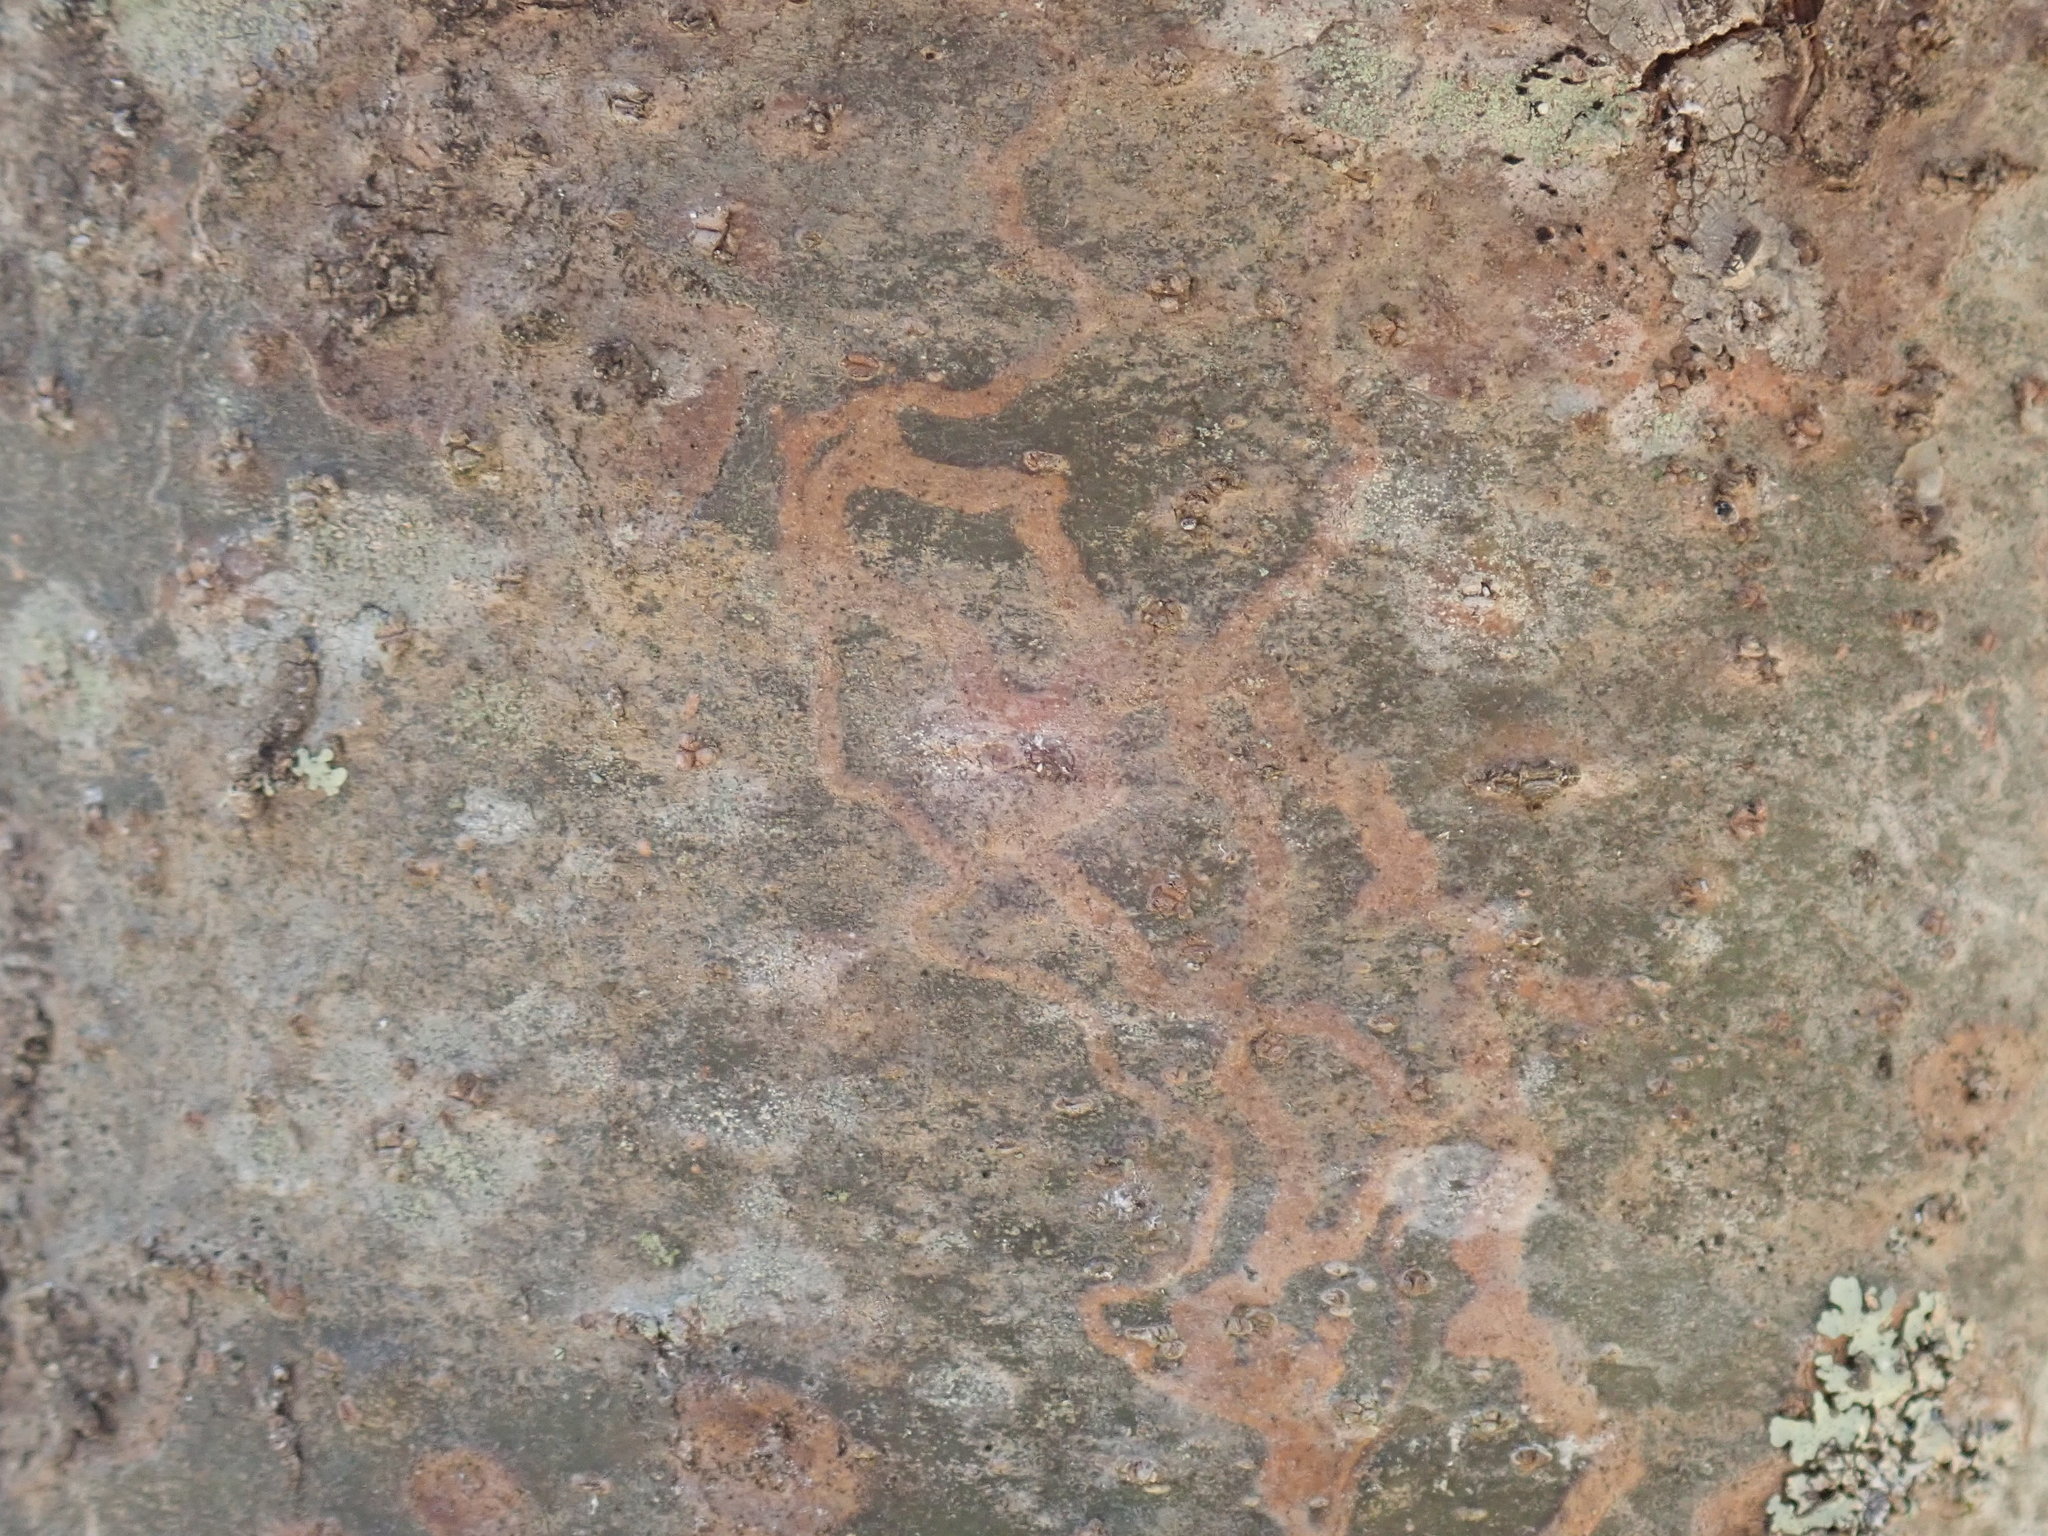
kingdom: Animalia
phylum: Arthropoda
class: Insecta
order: Lepidoptera
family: Gracillariidae
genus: Marmara
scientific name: Marmara fasciella
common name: White pine barkminer moth
